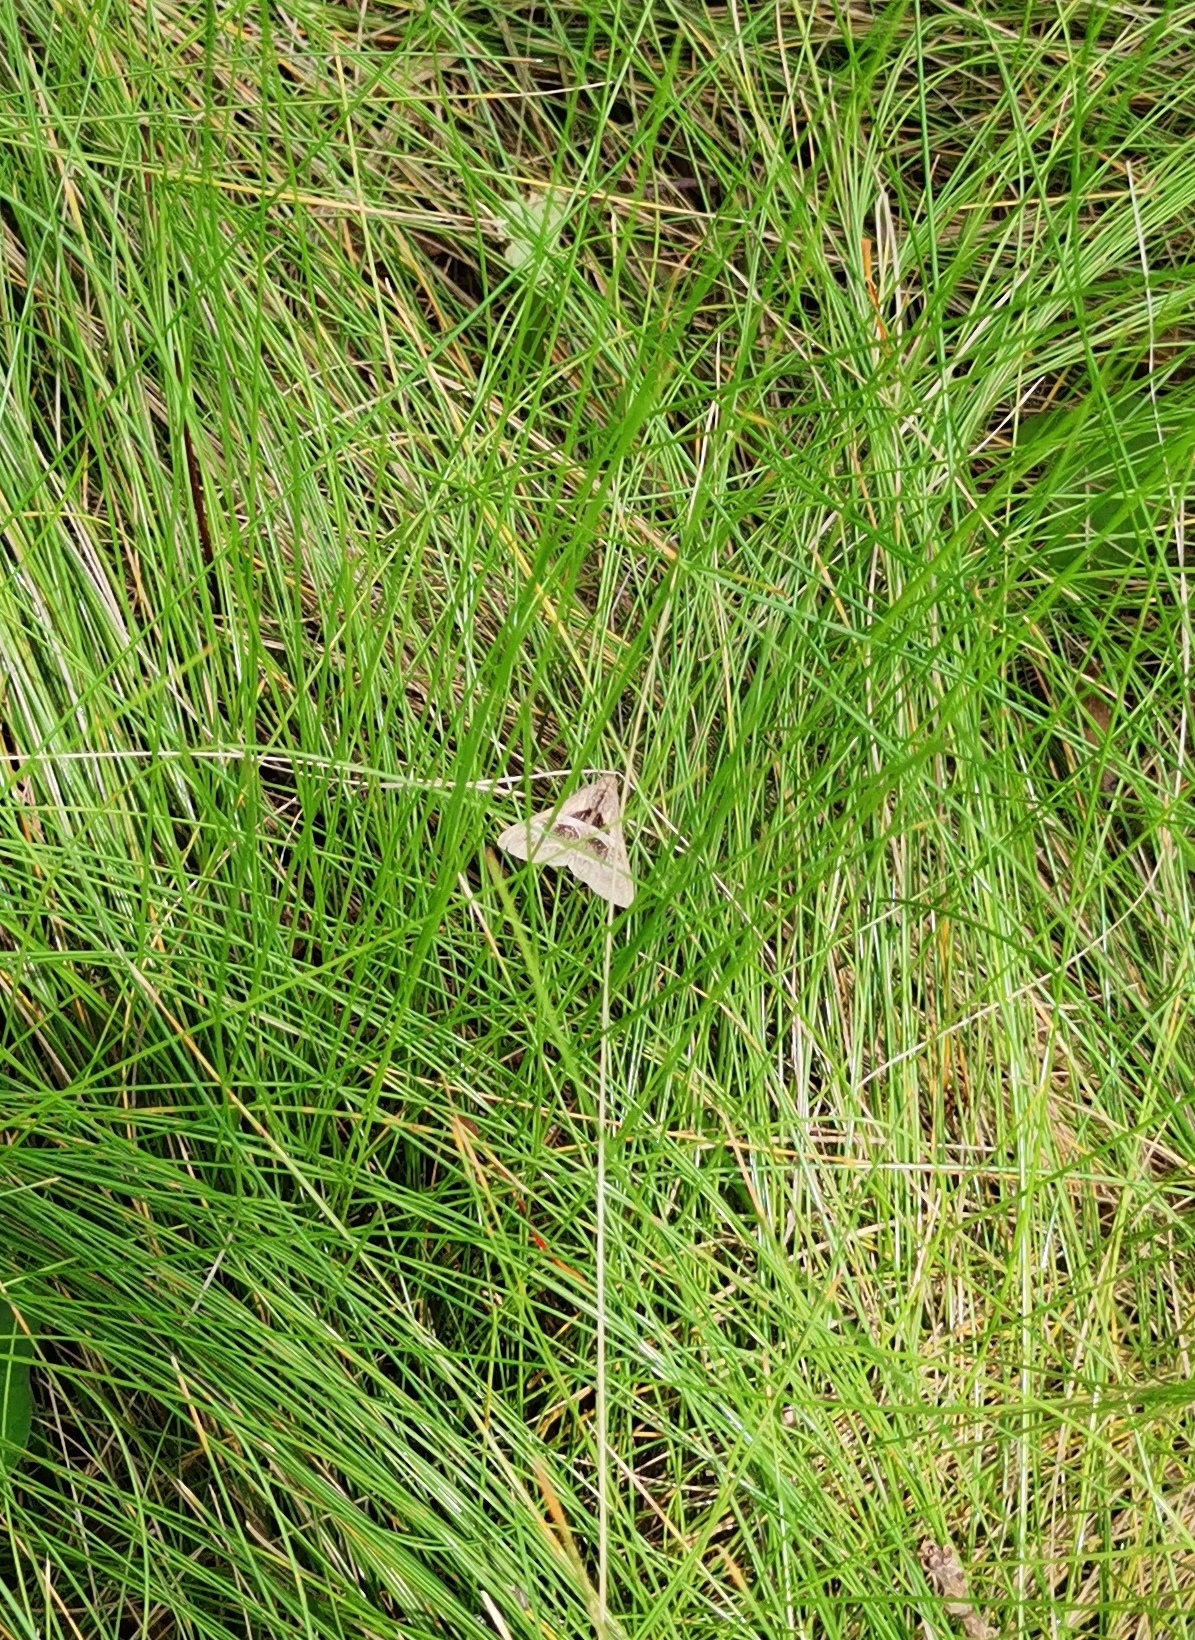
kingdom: Animalia
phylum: Arthropoda
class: Insecta
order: Lepidoptera
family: Erebidae
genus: Melipotis
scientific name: Melipotis cellaris
